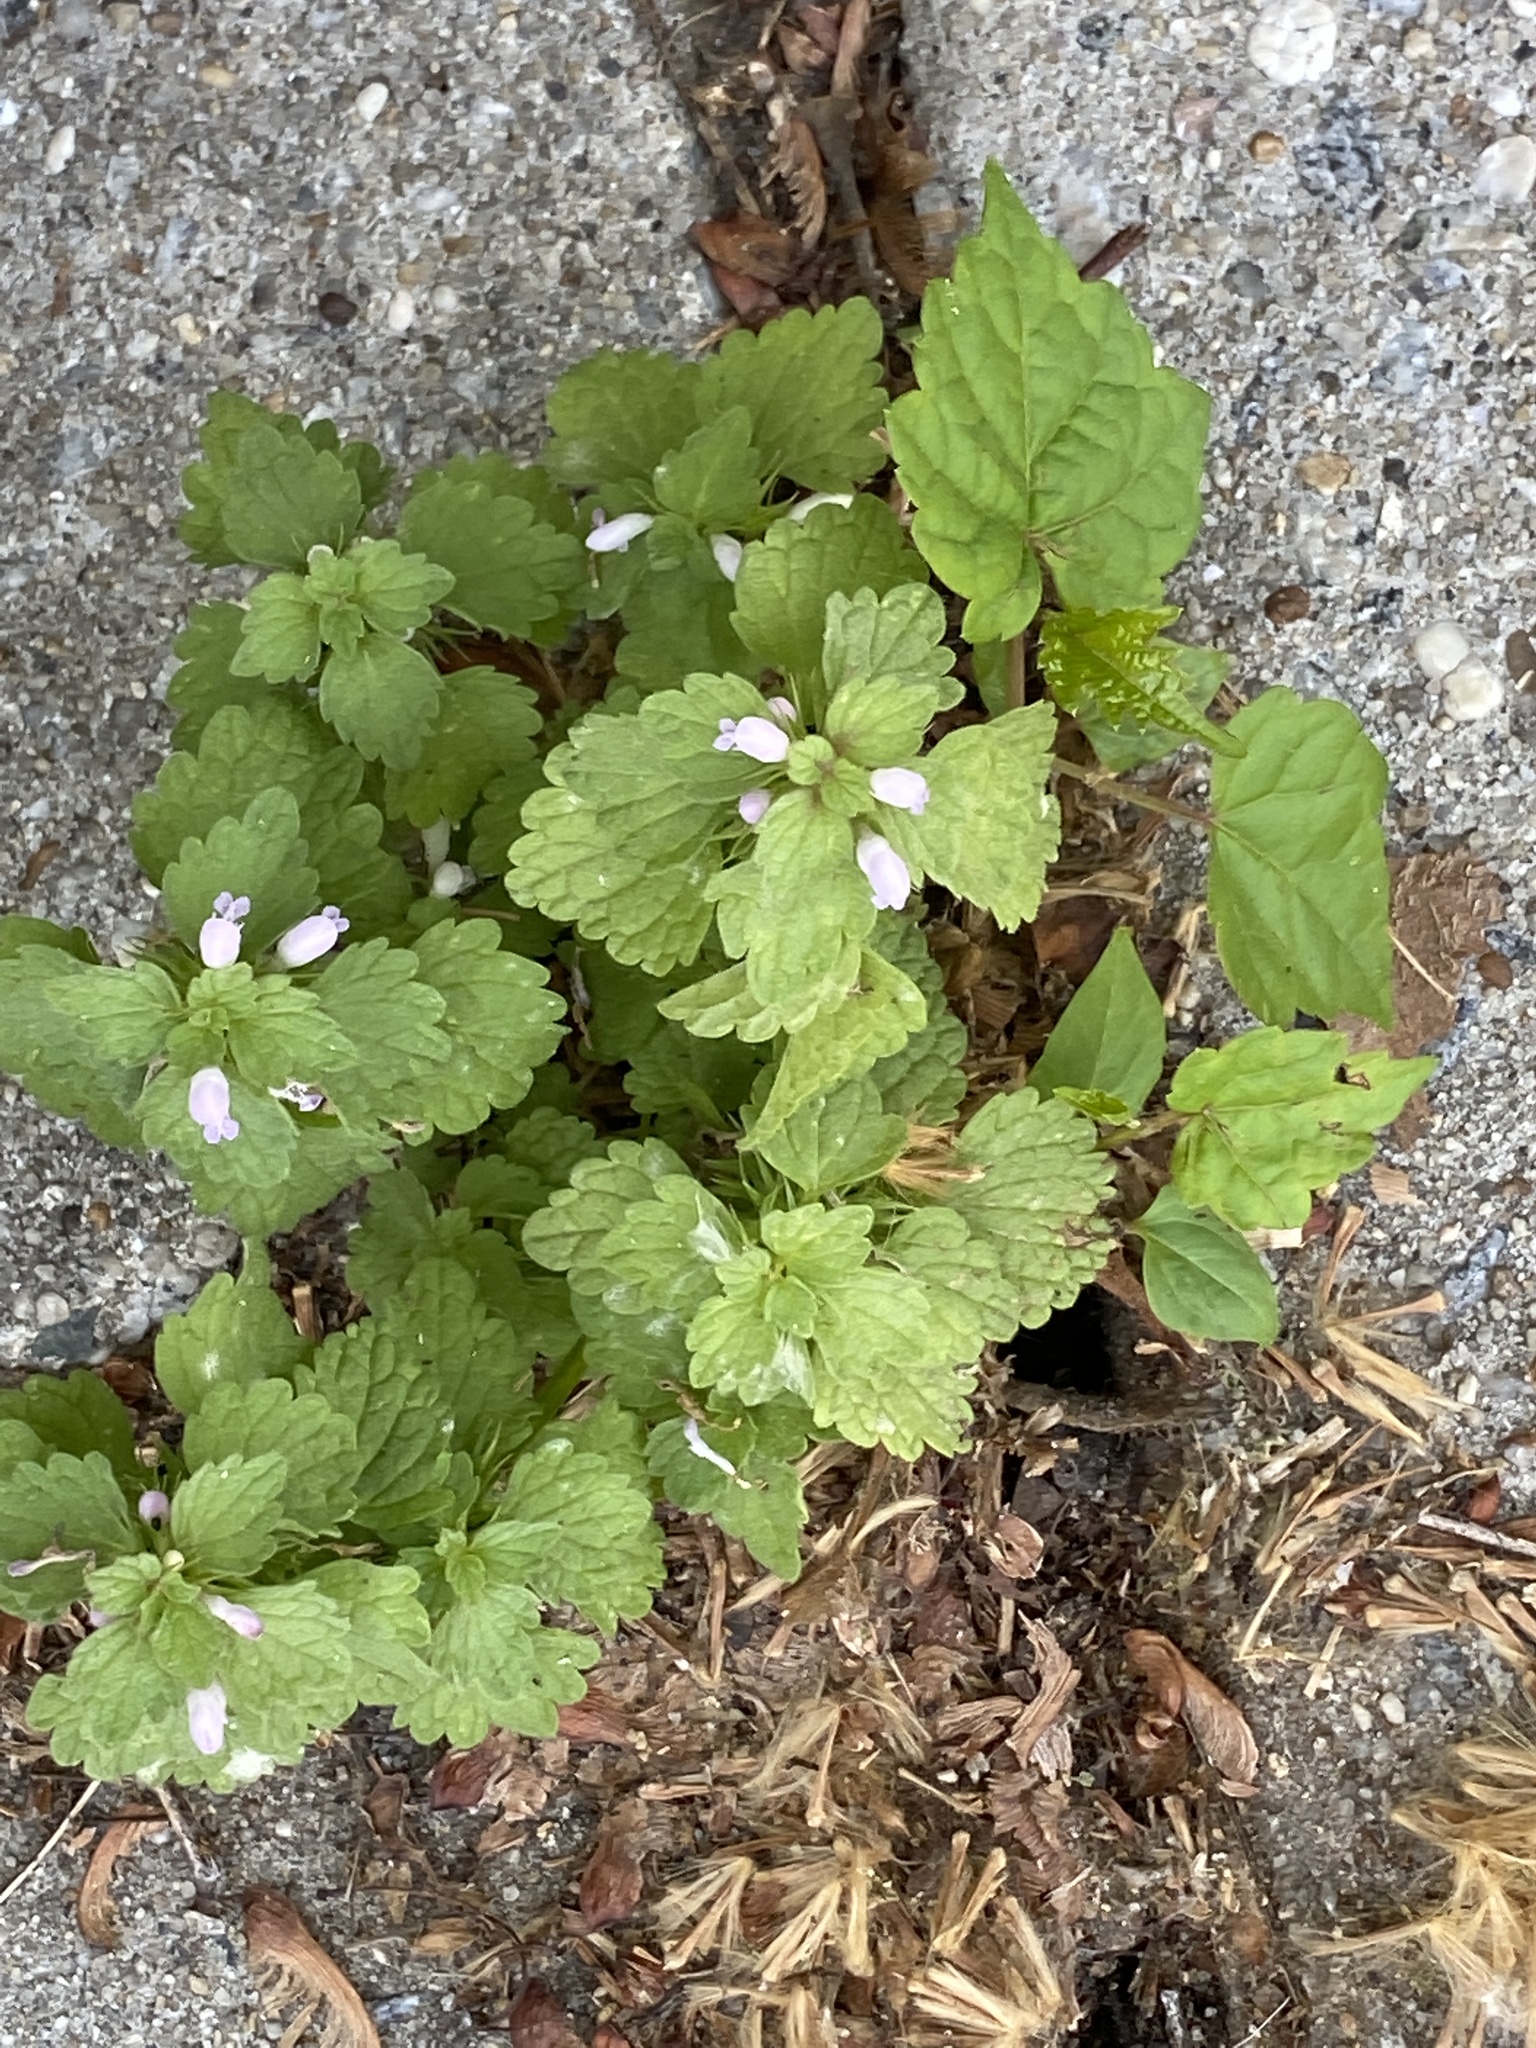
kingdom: Plantae
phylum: Tracheophyta
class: Magnoliopsida
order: Lamiales
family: Lamiaceae
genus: Lamium
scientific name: Lamium purpureum
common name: Red dead-nettle
